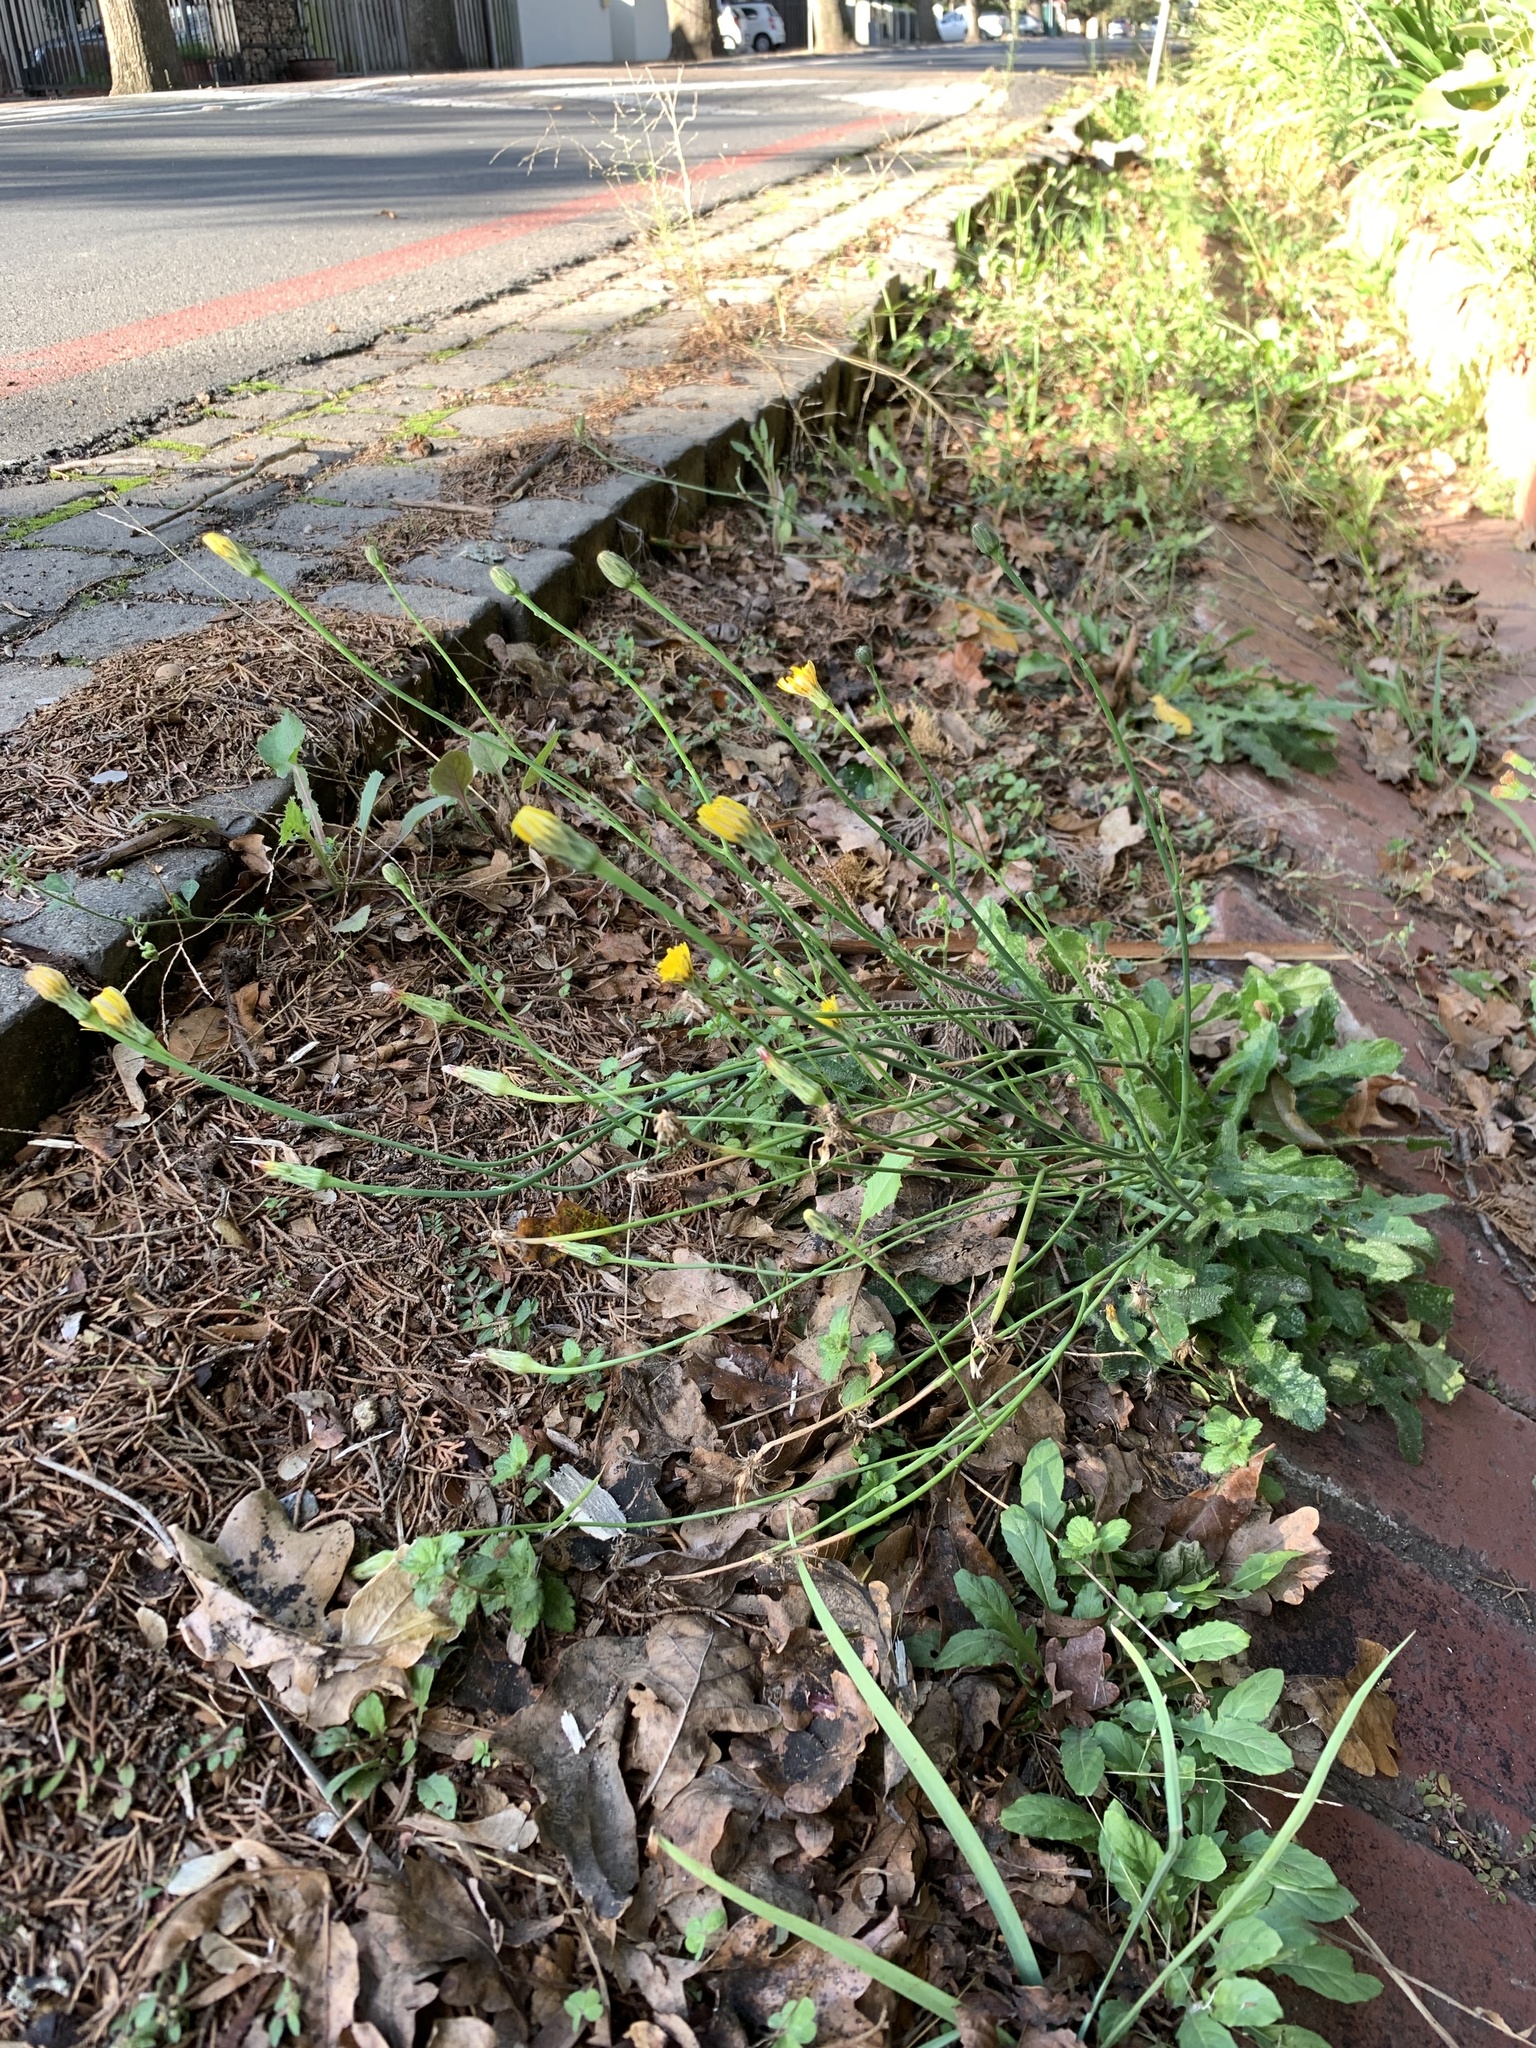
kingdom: Plantae
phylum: Tracheophyta
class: Magnoliopsida
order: Asterales
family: Asteraceae
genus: Hypochaeris
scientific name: Hypochaeris radicata
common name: Flatweed
